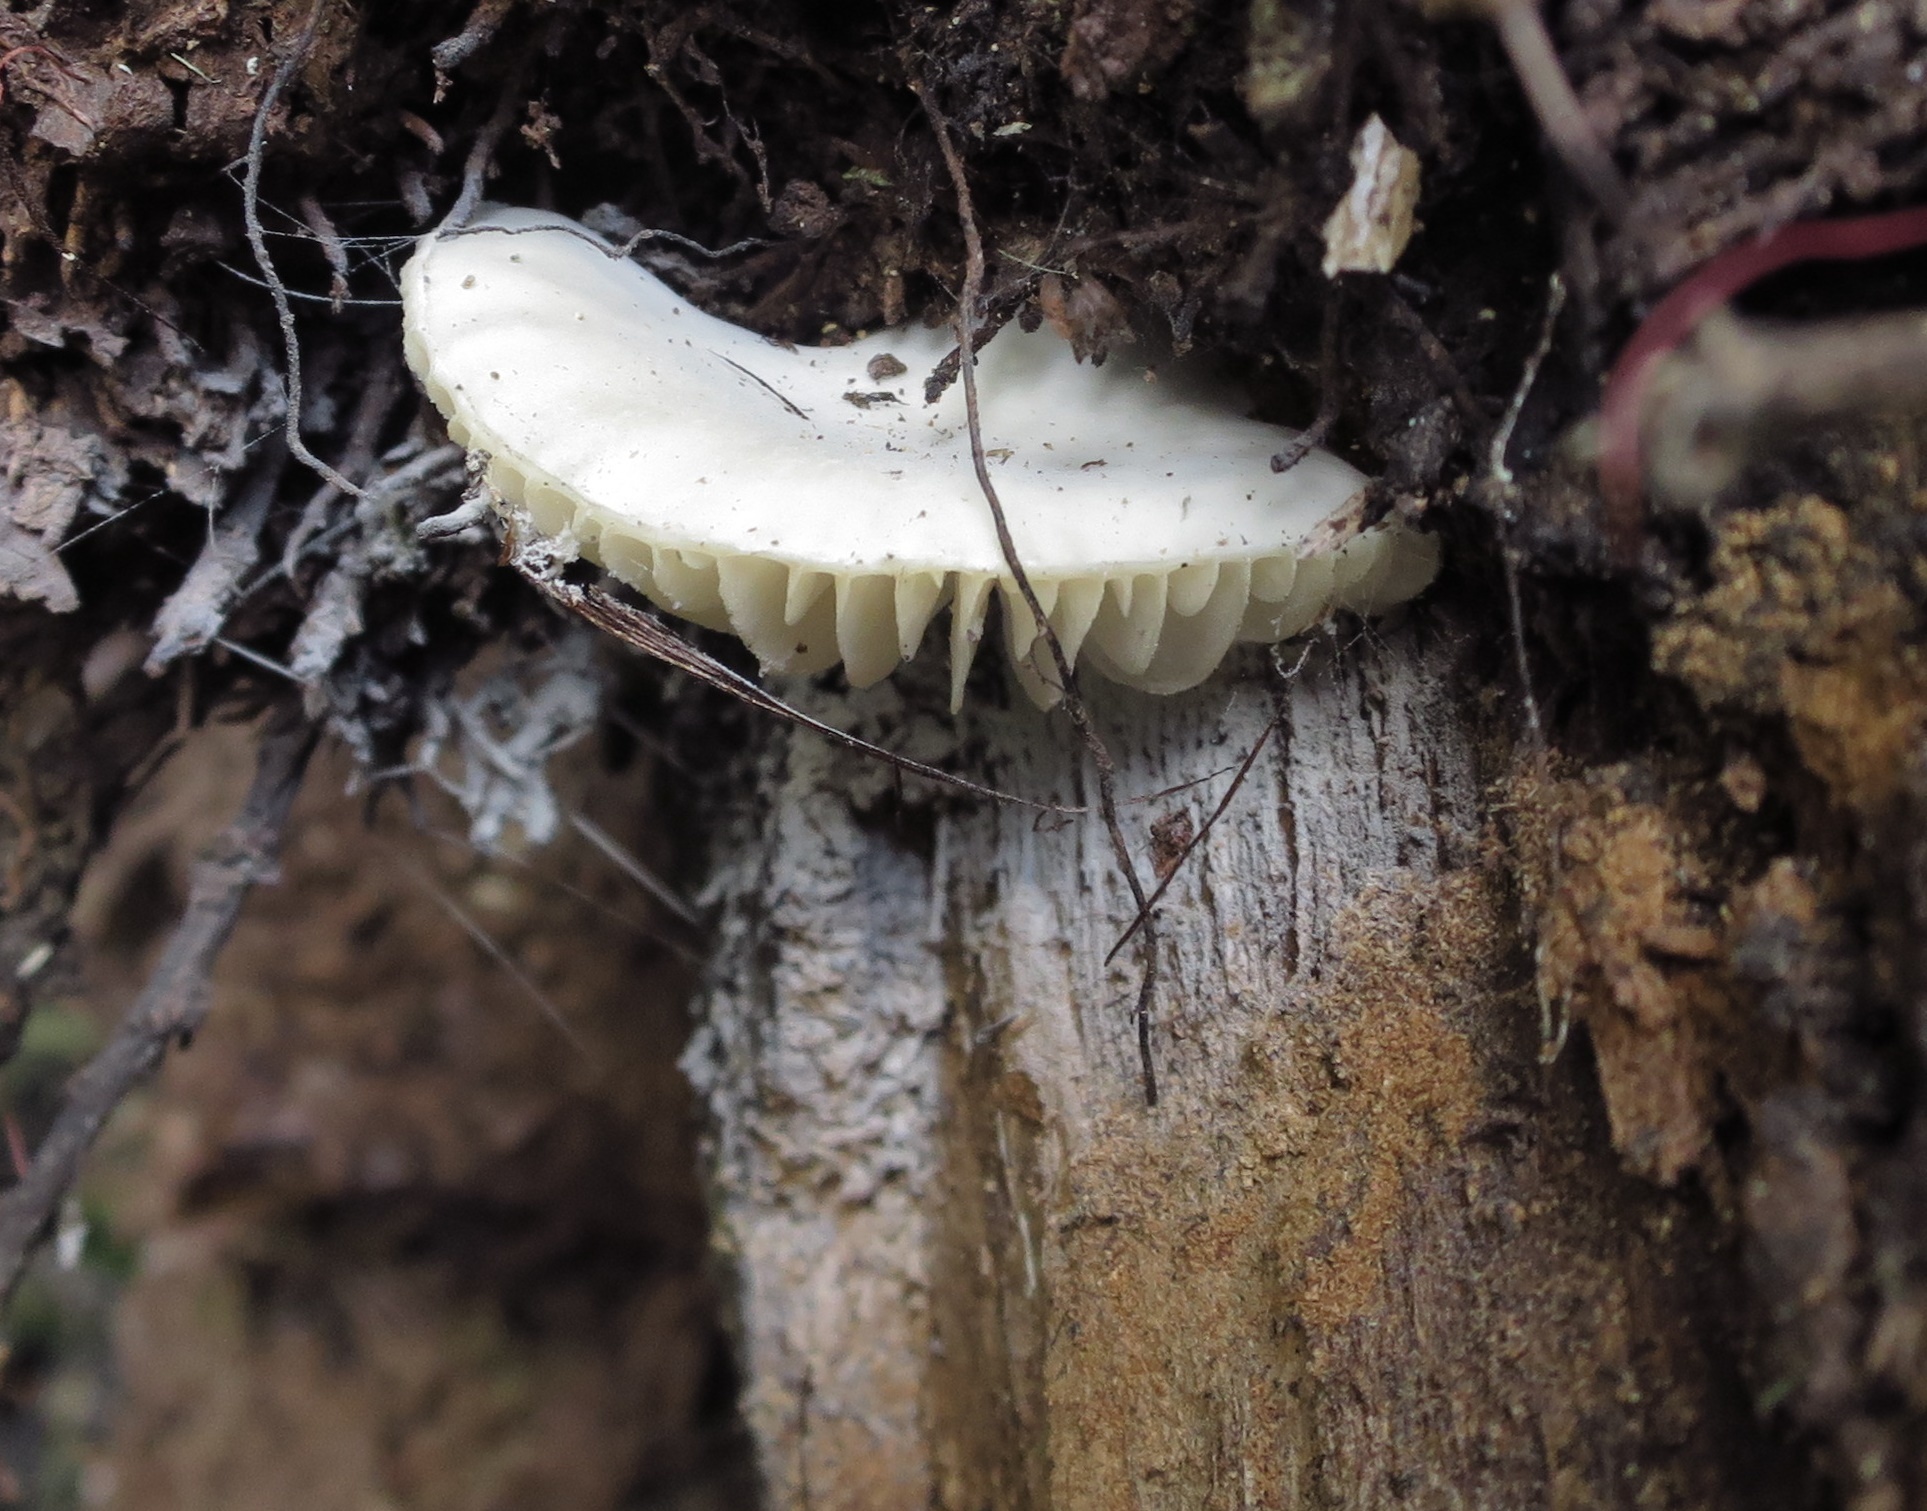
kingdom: Fungi
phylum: Basidiomycota
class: Agaricomycetes
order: Agaricales
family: Physalacriaceae
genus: Oudemansiella
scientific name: Oudemansiella australis
